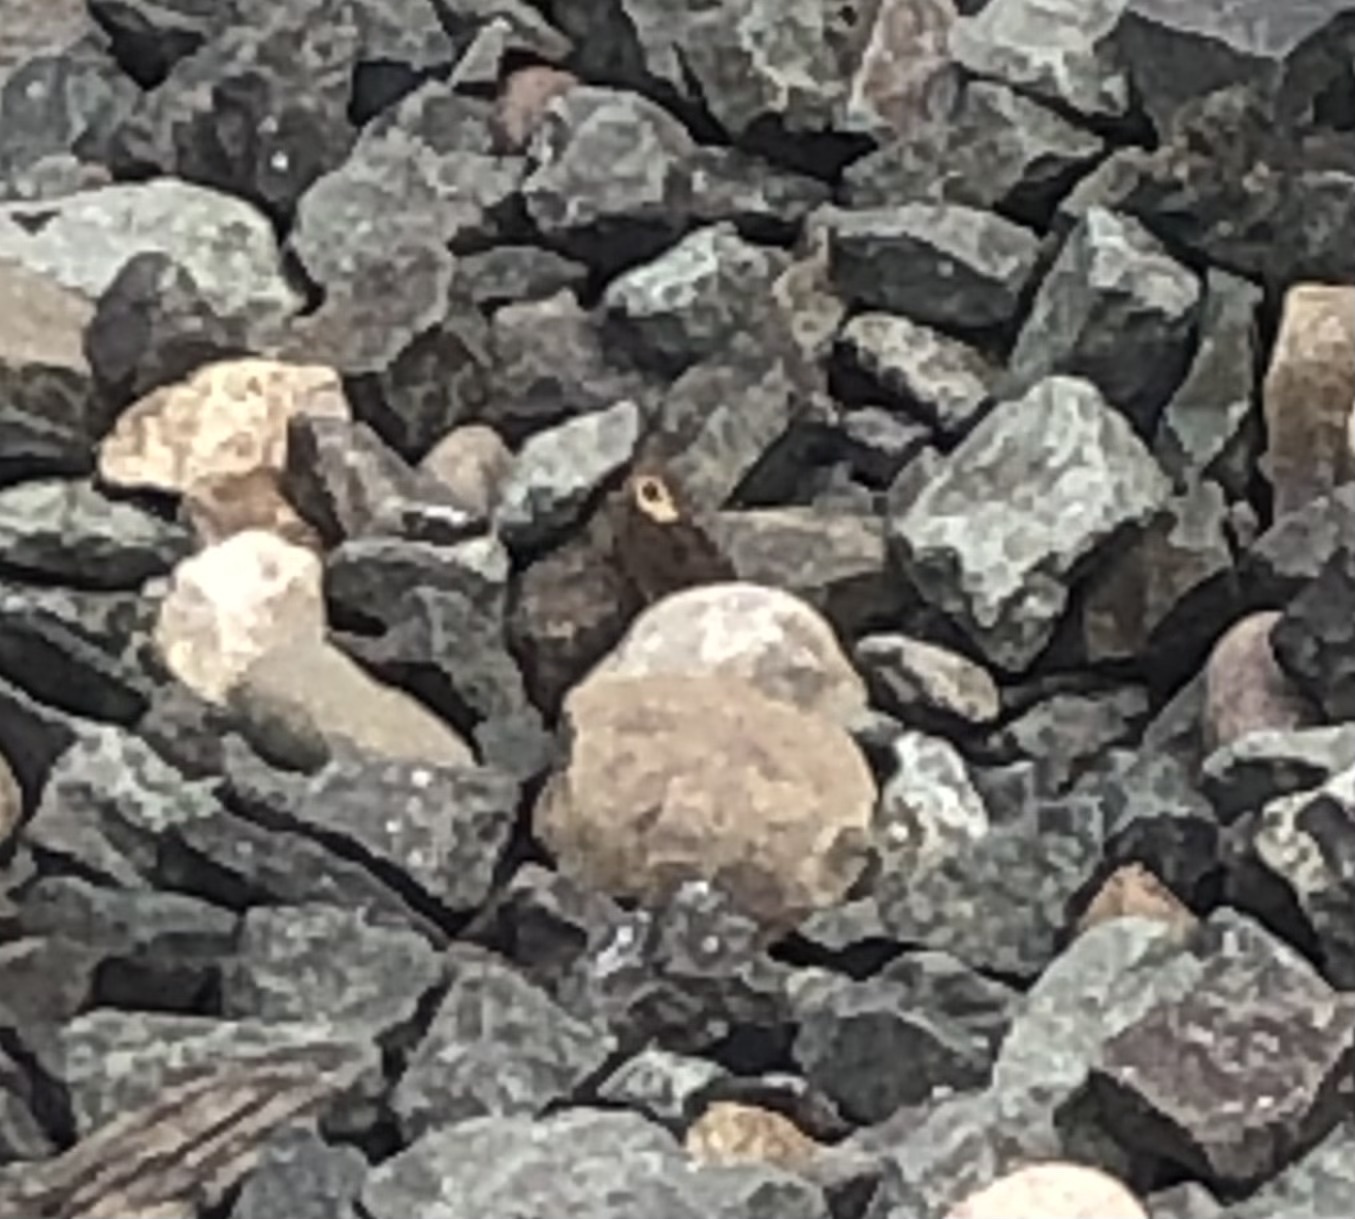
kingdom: Animalia
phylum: Arthropoda
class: Insecta
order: Lepidoptera
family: Nymphalidae
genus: Cercyonis
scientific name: Cercyonis pegala
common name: Common wood-nymph
